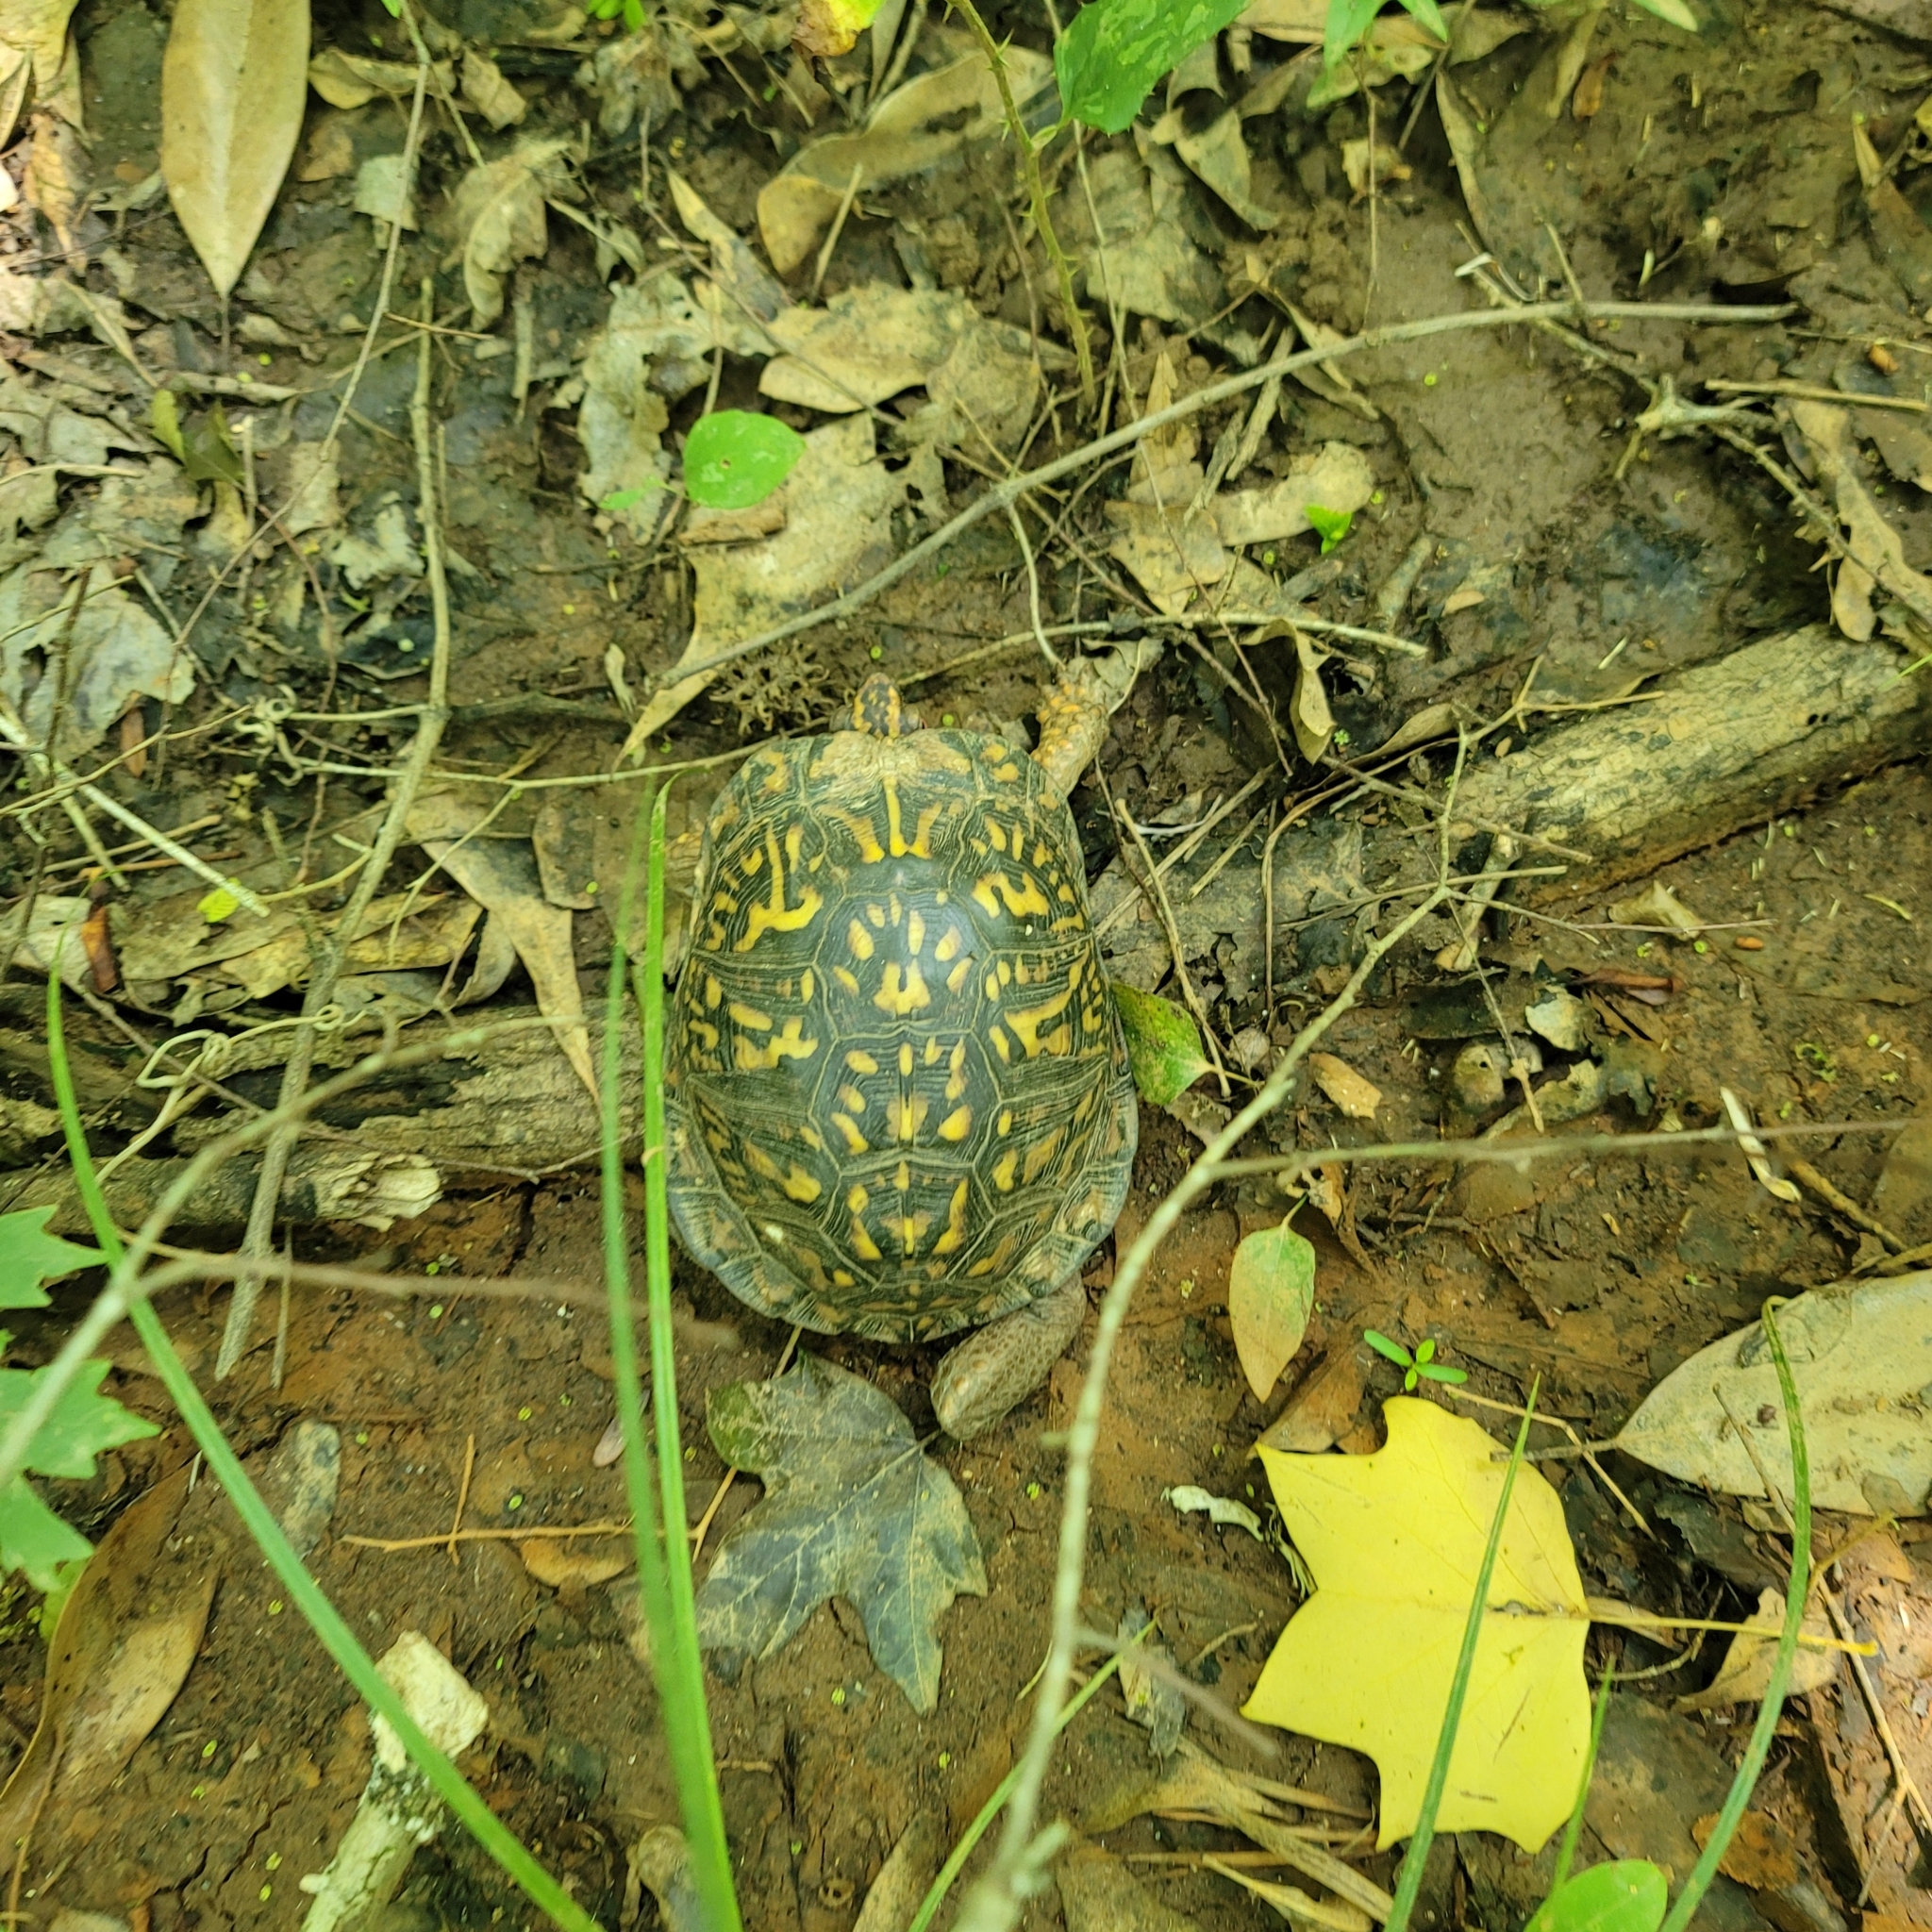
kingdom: Animalia
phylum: Chordata
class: Testudines
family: Emydidae
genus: Terrapene
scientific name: Terrapene carolina
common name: Common box turtle
